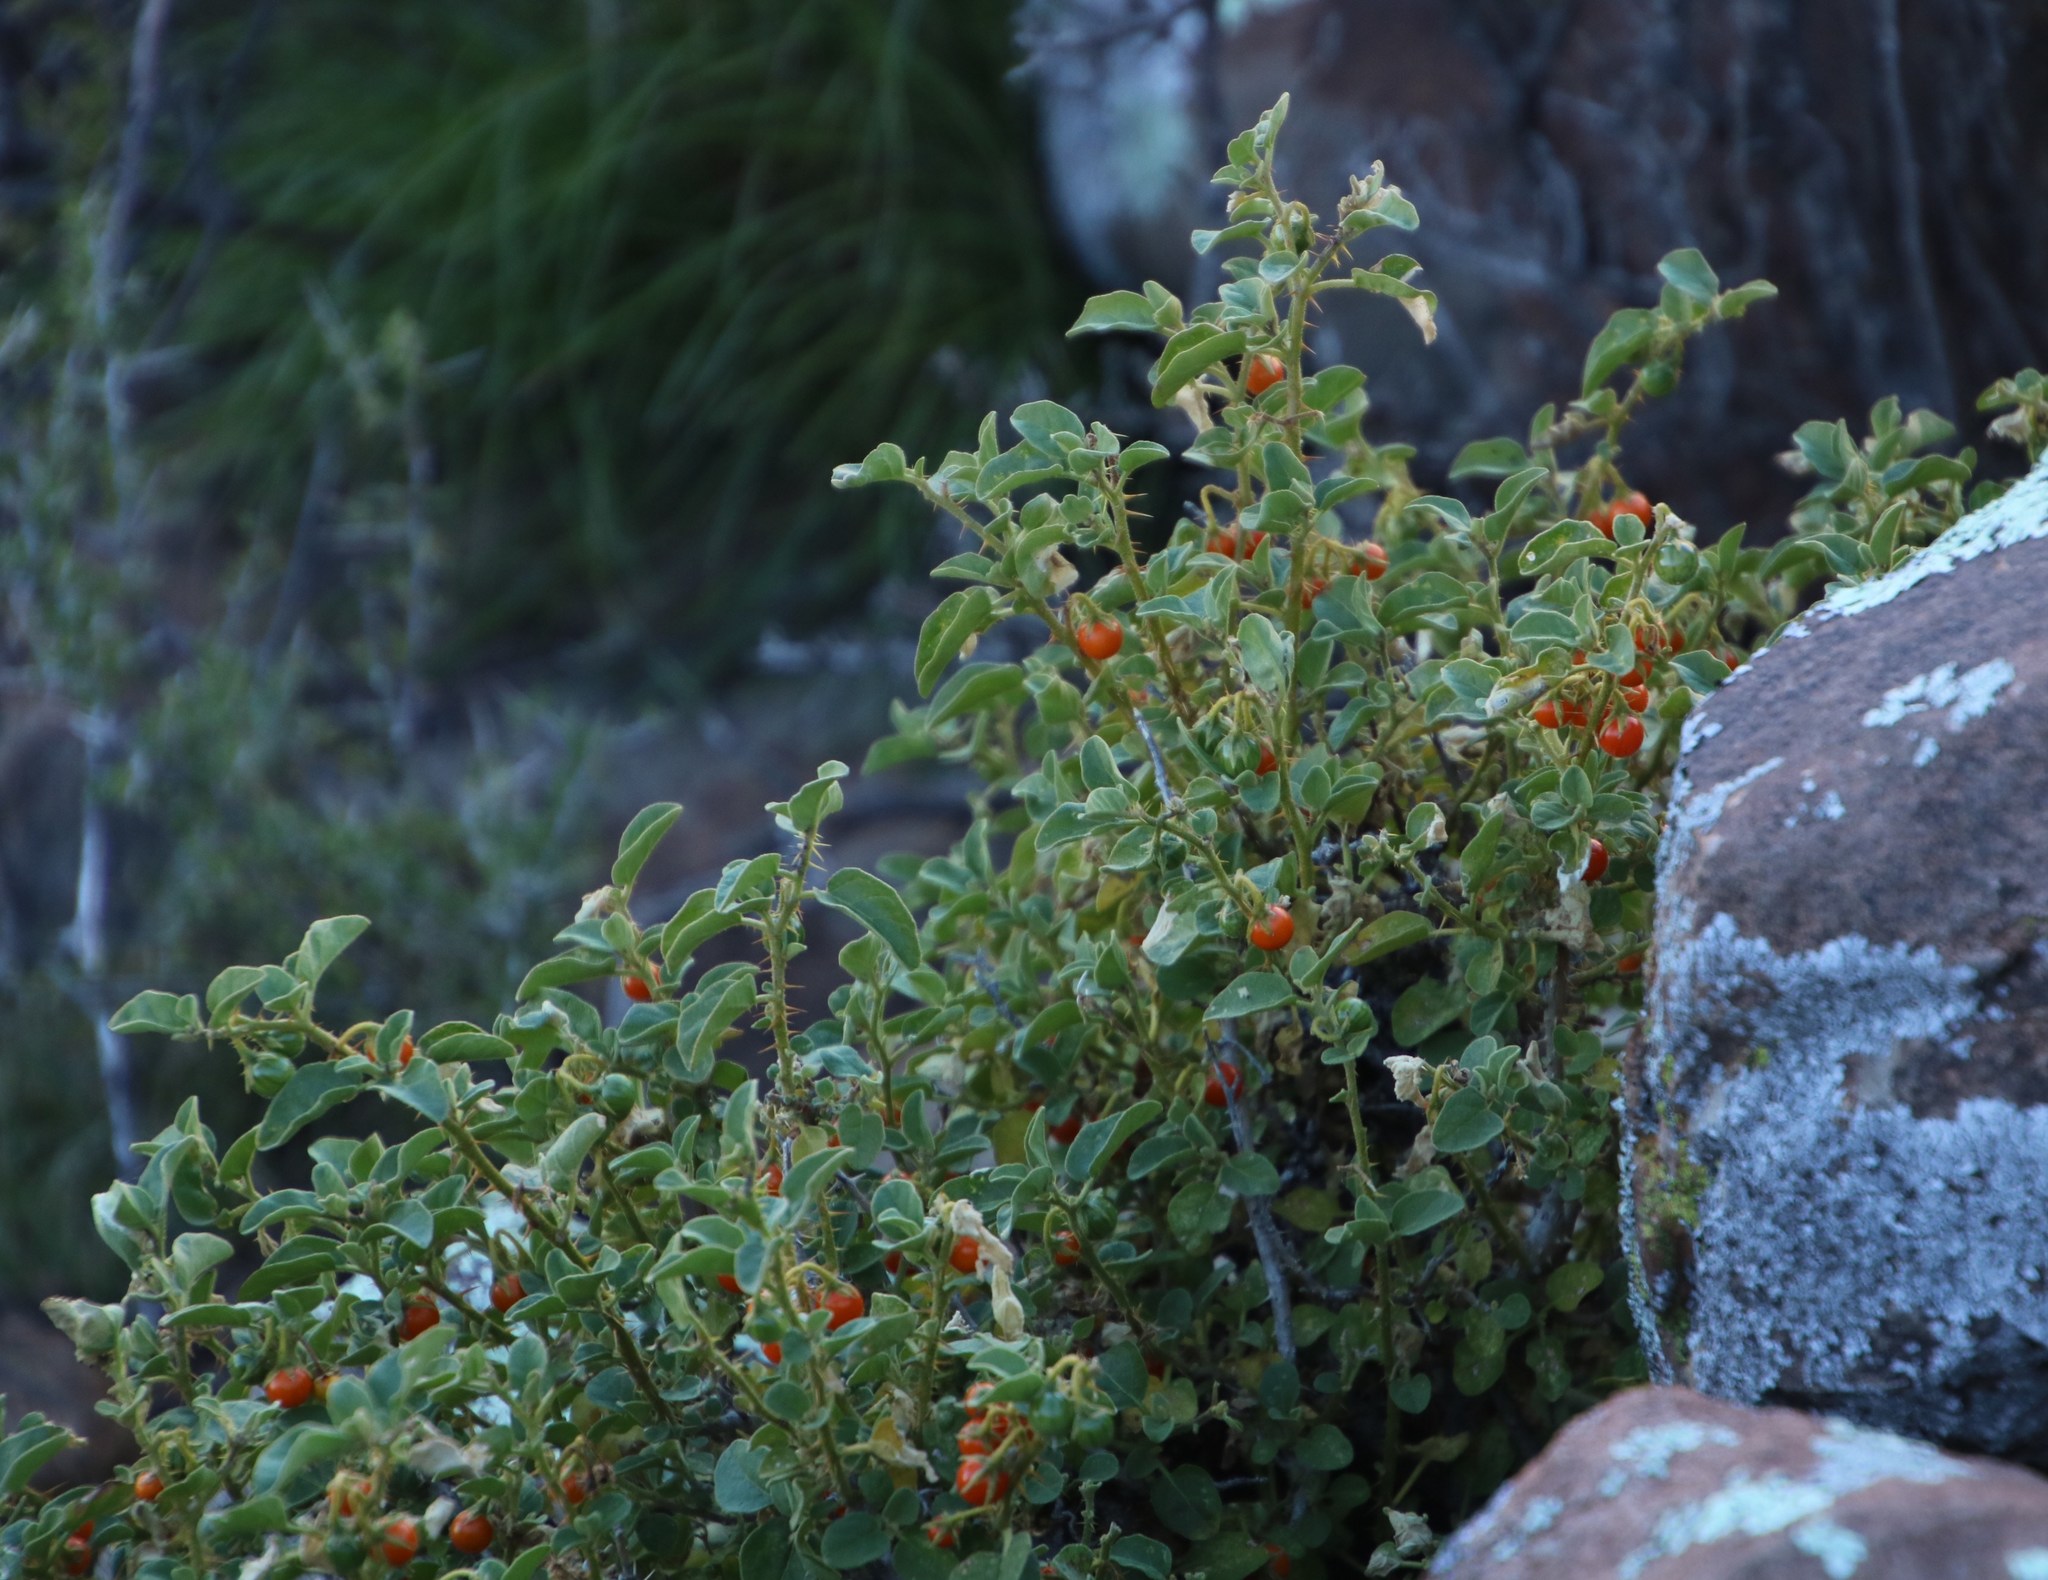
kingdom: Plantae
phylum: Tracheophyta
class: Magnoliopsida
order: Solanales
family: Solanaceae
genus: Solanum
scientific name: Solanum tomentosum
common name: Wild aubergine
